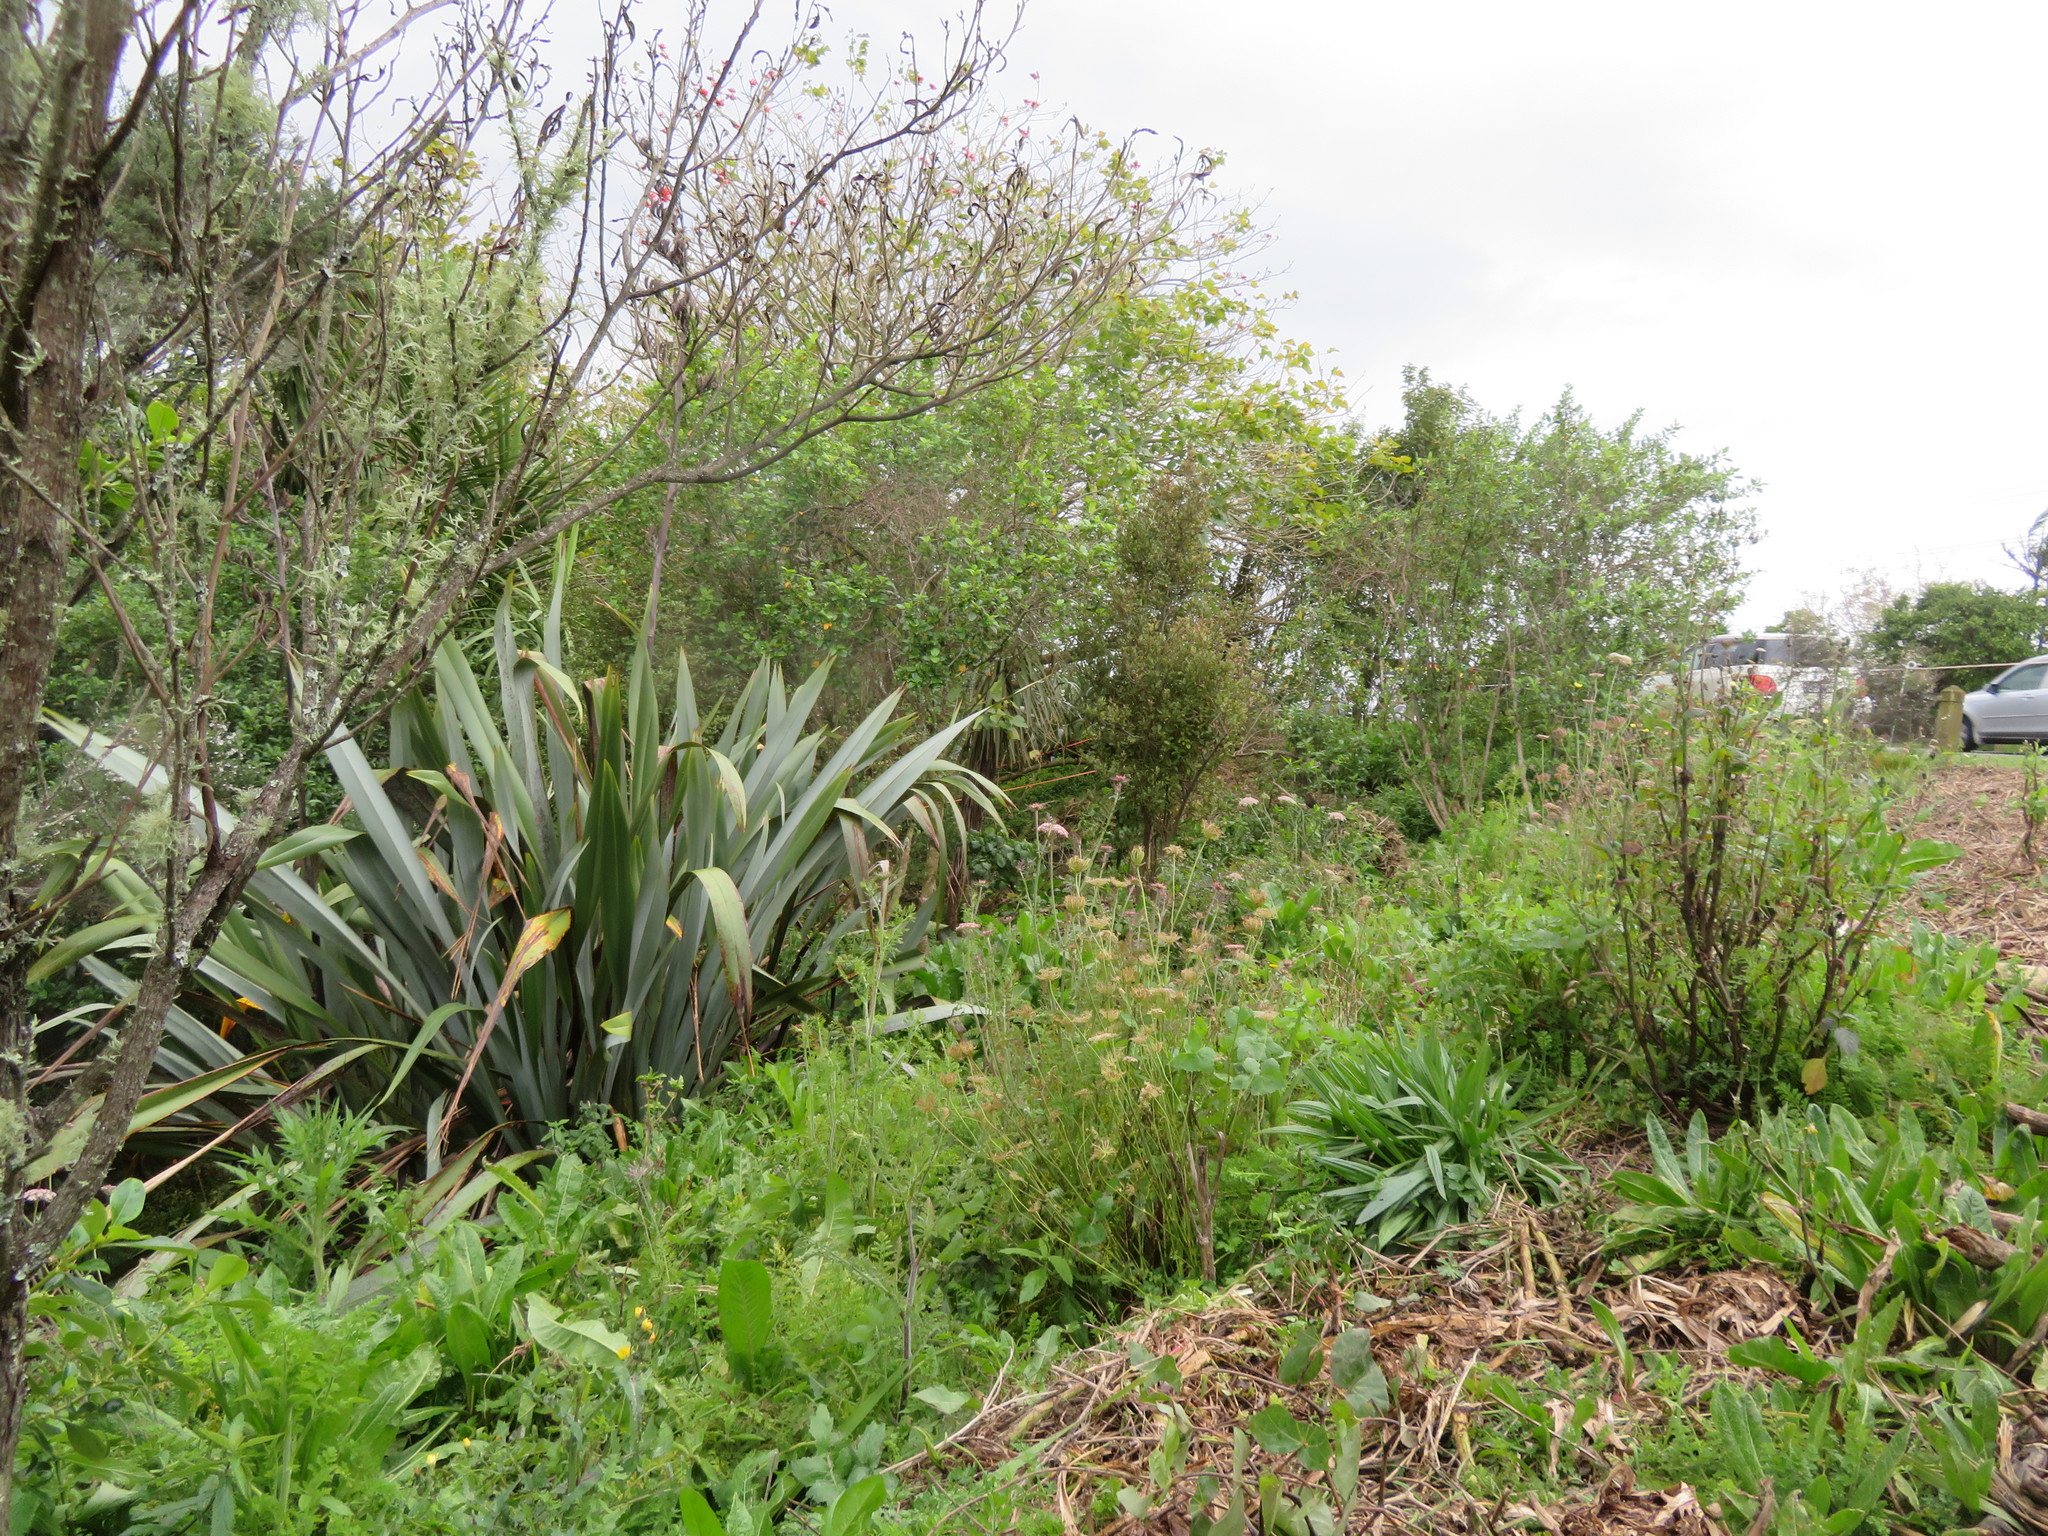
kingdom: Plantae
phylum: Tracheophyta
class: Magnoliopsida
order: Apiales
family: Apiaceae
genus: Daucus
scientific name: Daucus carota
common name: Wild carrot
